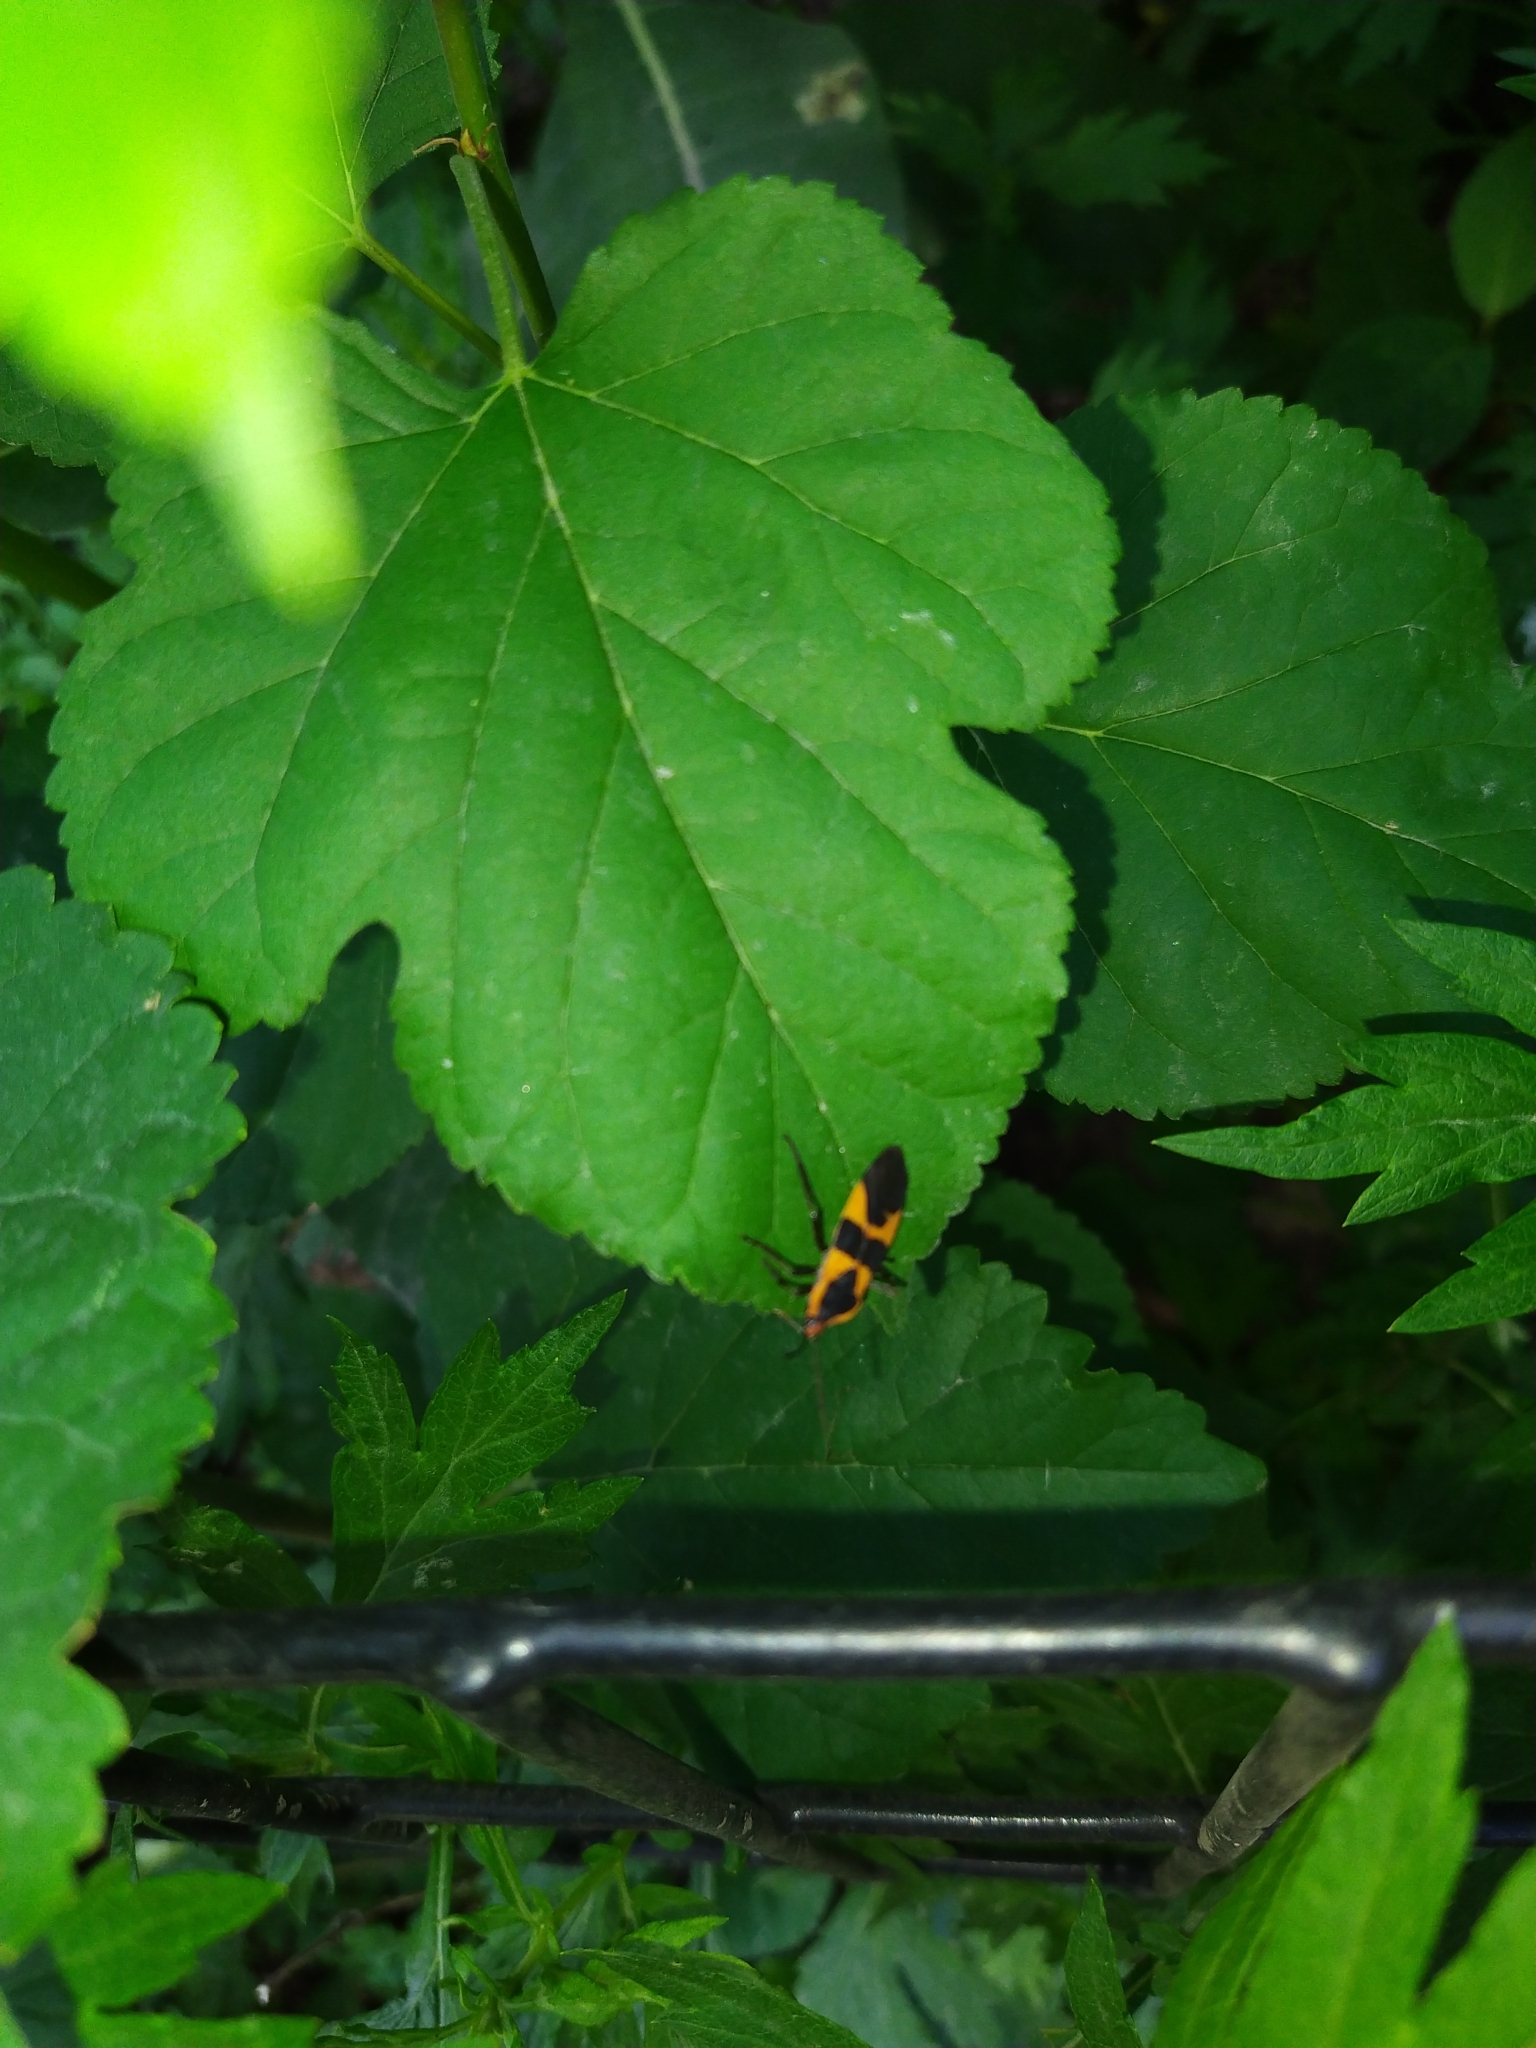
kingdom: Animalia
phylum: Arthropoda
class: Insecta
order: Hemiptera
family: Lygaeidae
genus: Oncopeltus
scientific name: Oncopeltus fasciatus
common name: Large milkweed bug
